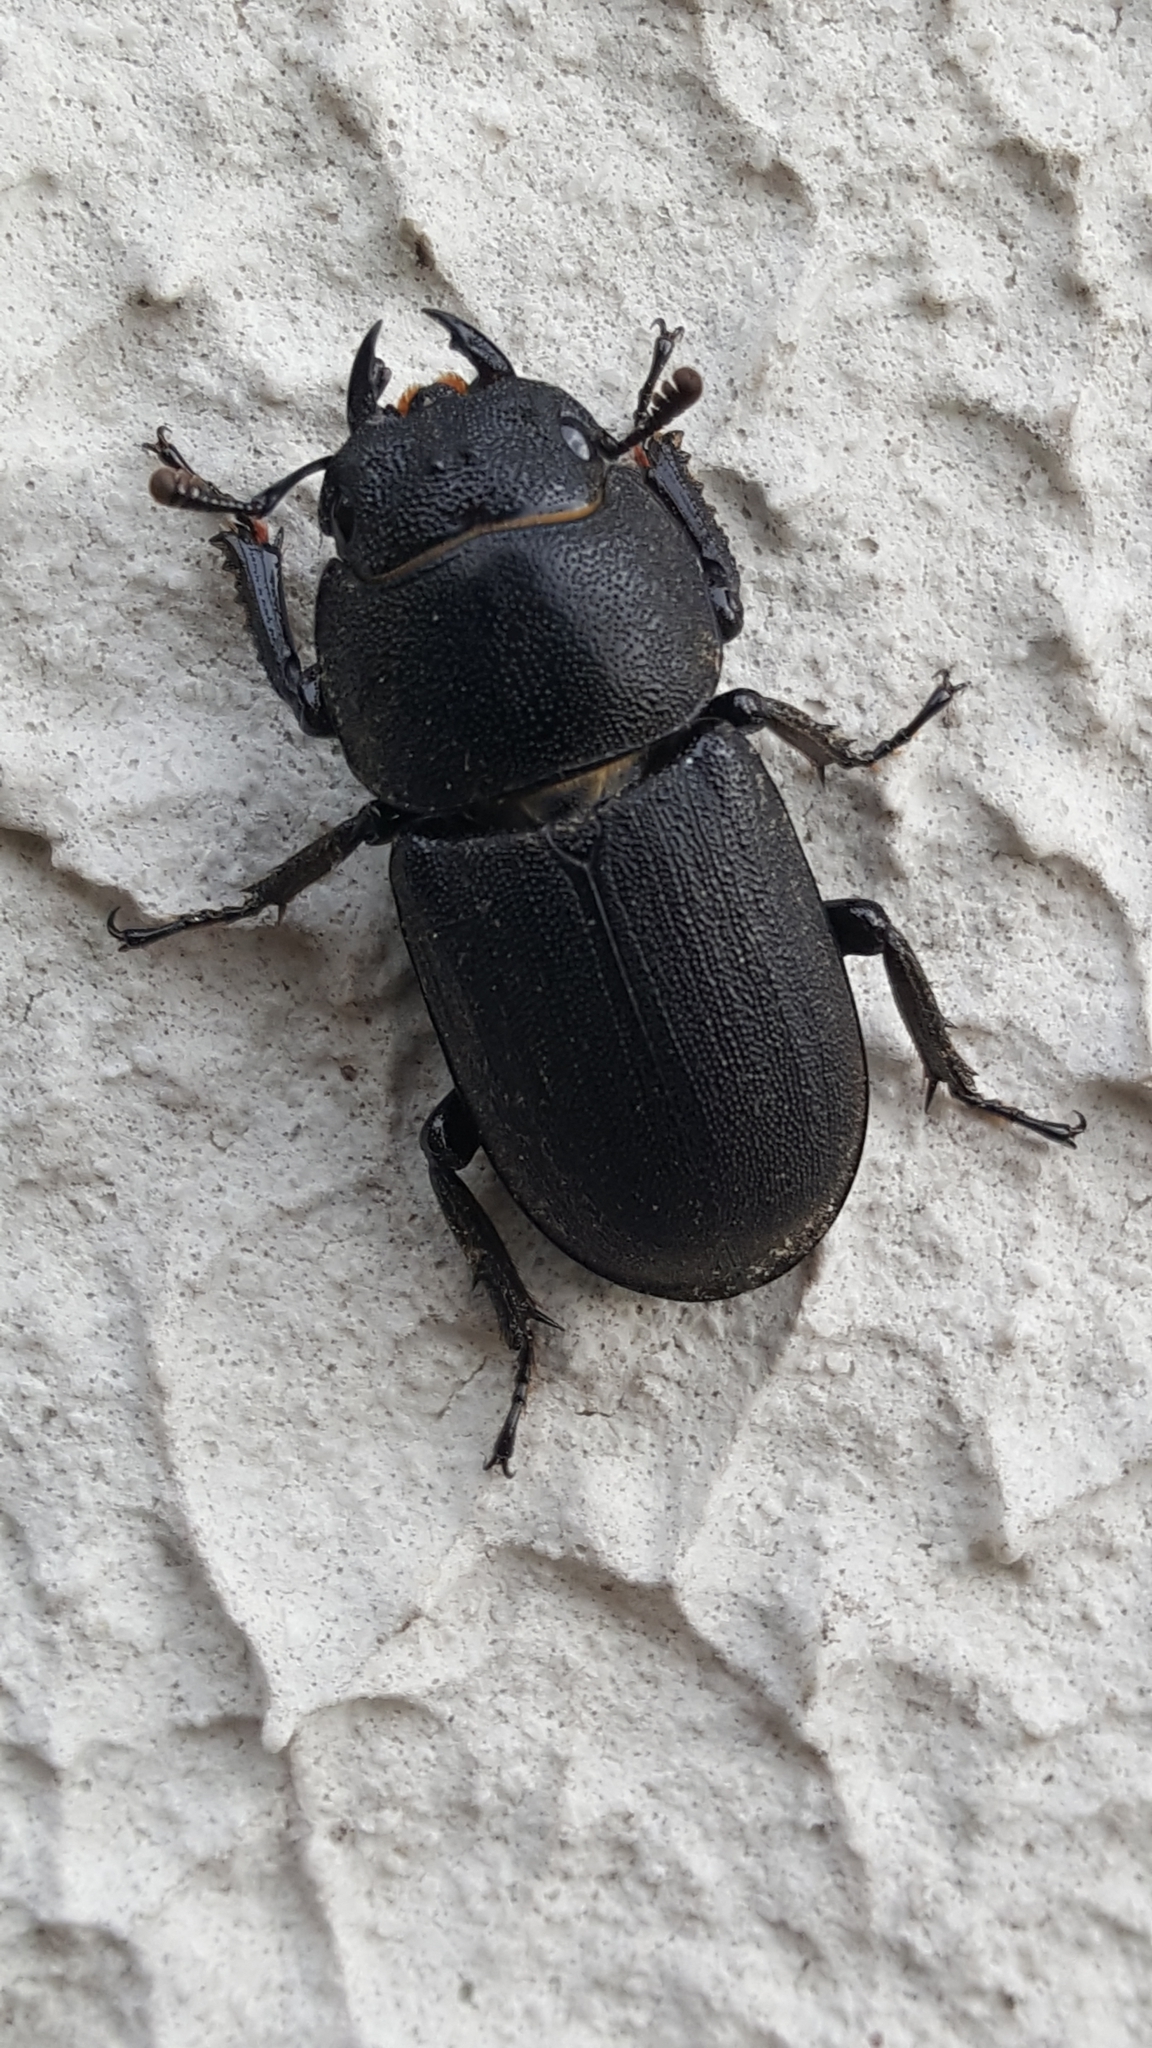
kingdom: Animalia
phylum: Arthropoda
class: Insecta
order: Coleoptera
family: Lucanidae
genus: Dorcus
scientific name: Dorcus parallelipipedus
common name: Lesser stag beetle
